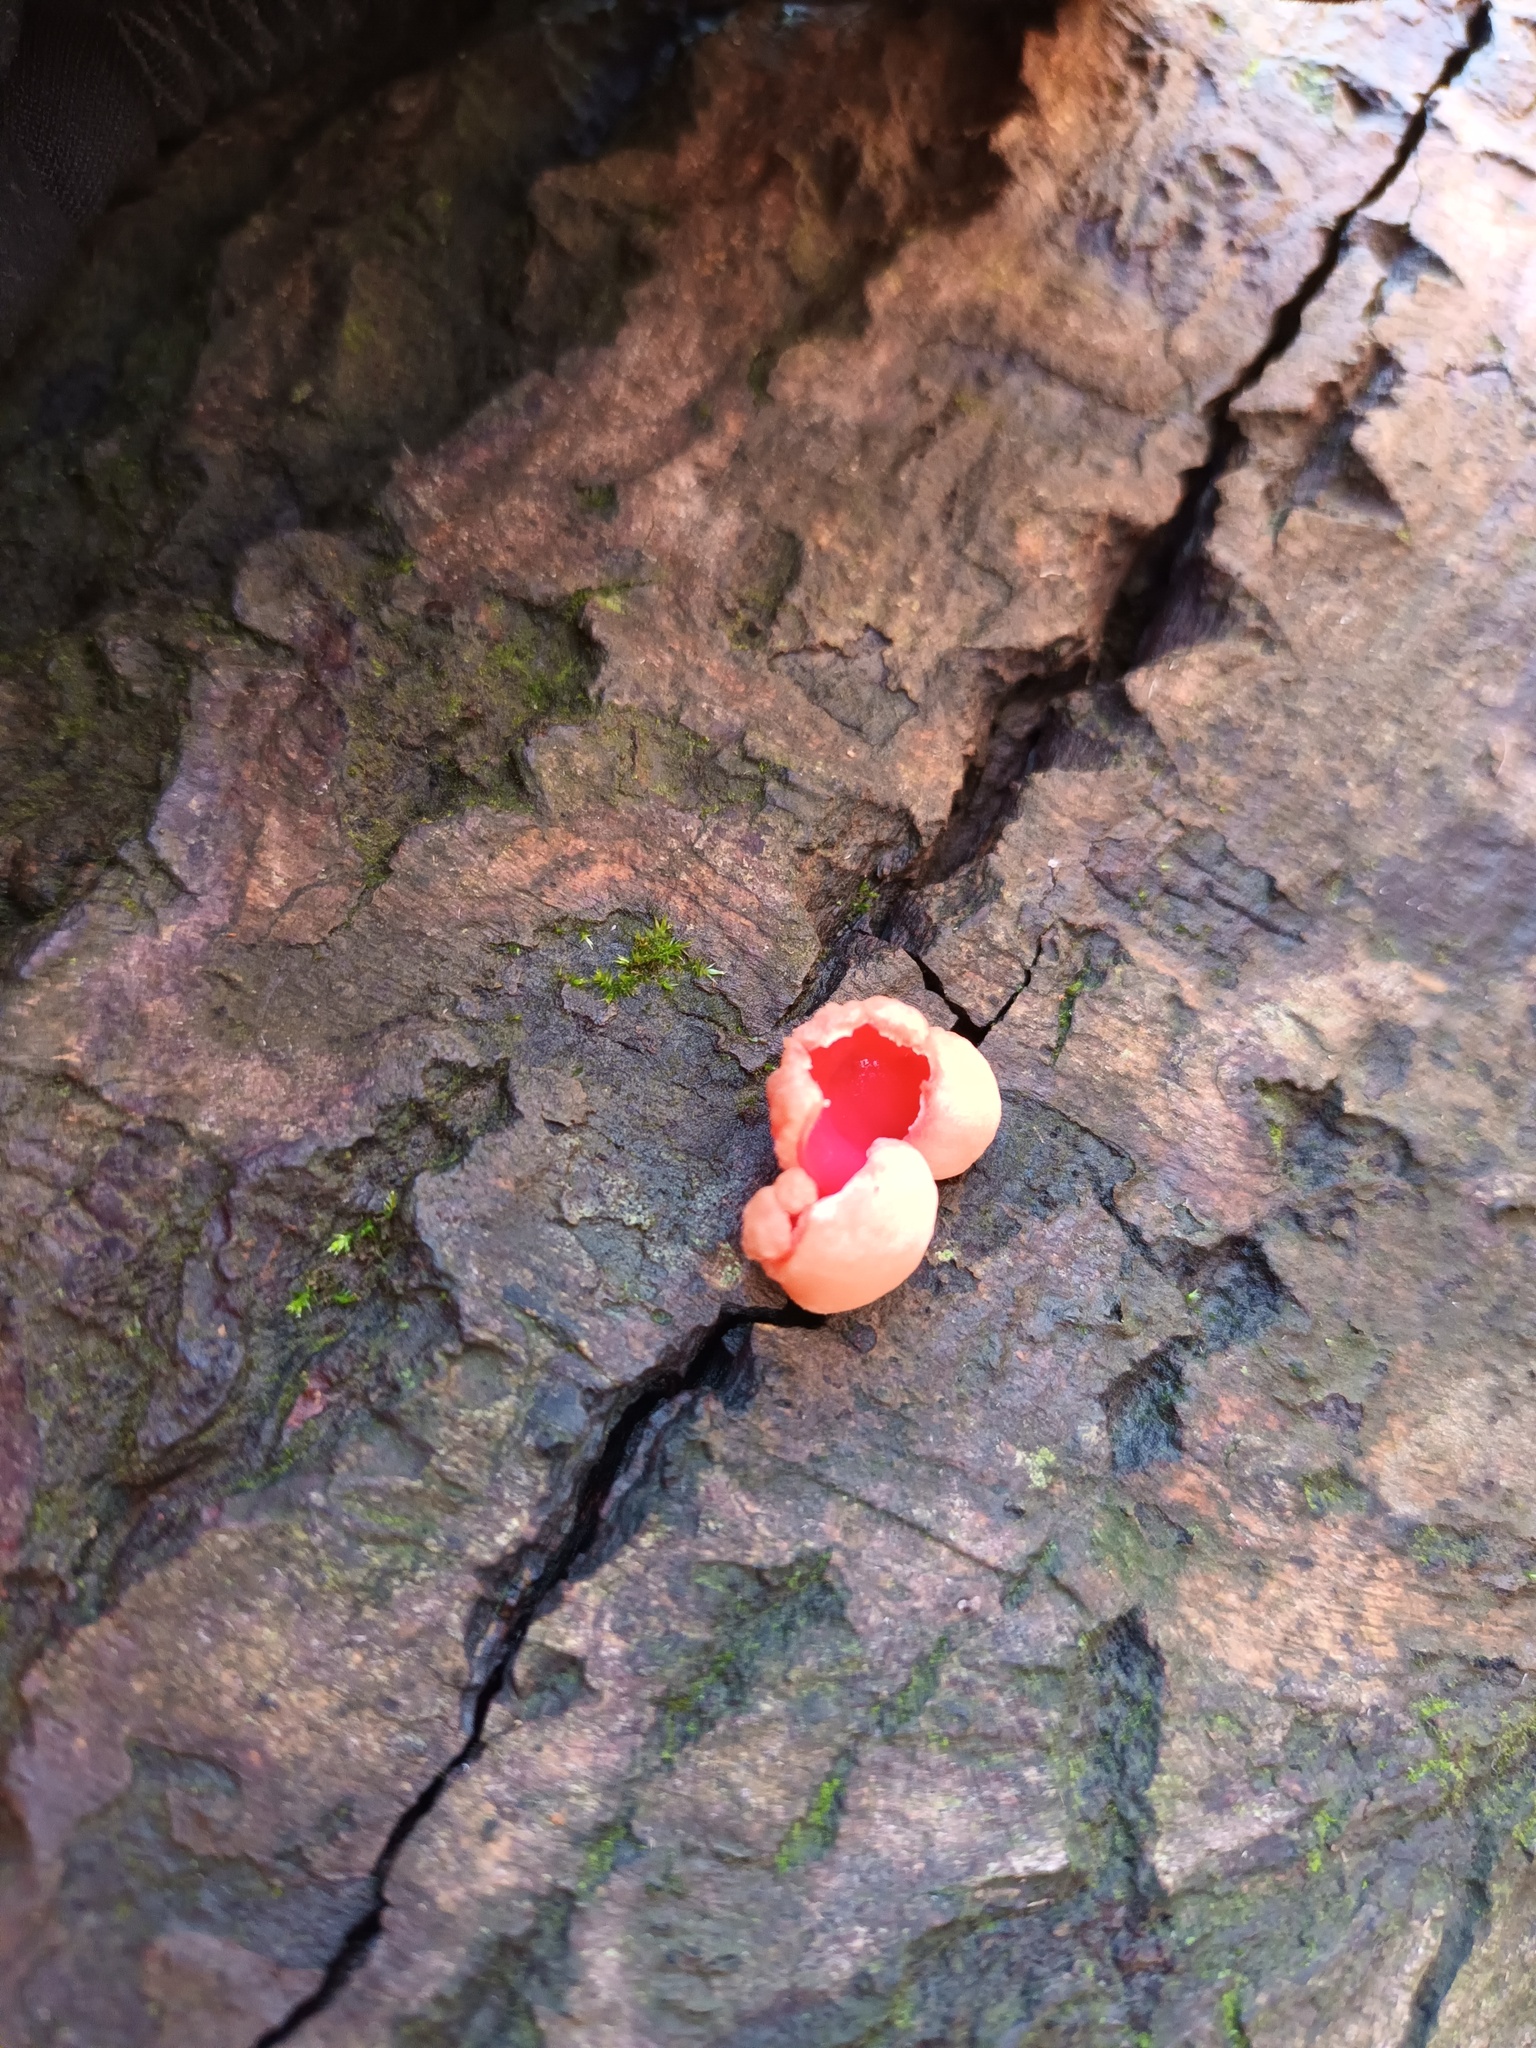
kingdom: Fungi
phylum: Ascomycota
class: Pezizomycetes
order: Pezizales
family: Sarcoscyphaceae
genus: Sarcoscypha
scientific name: Sarcoscypha
